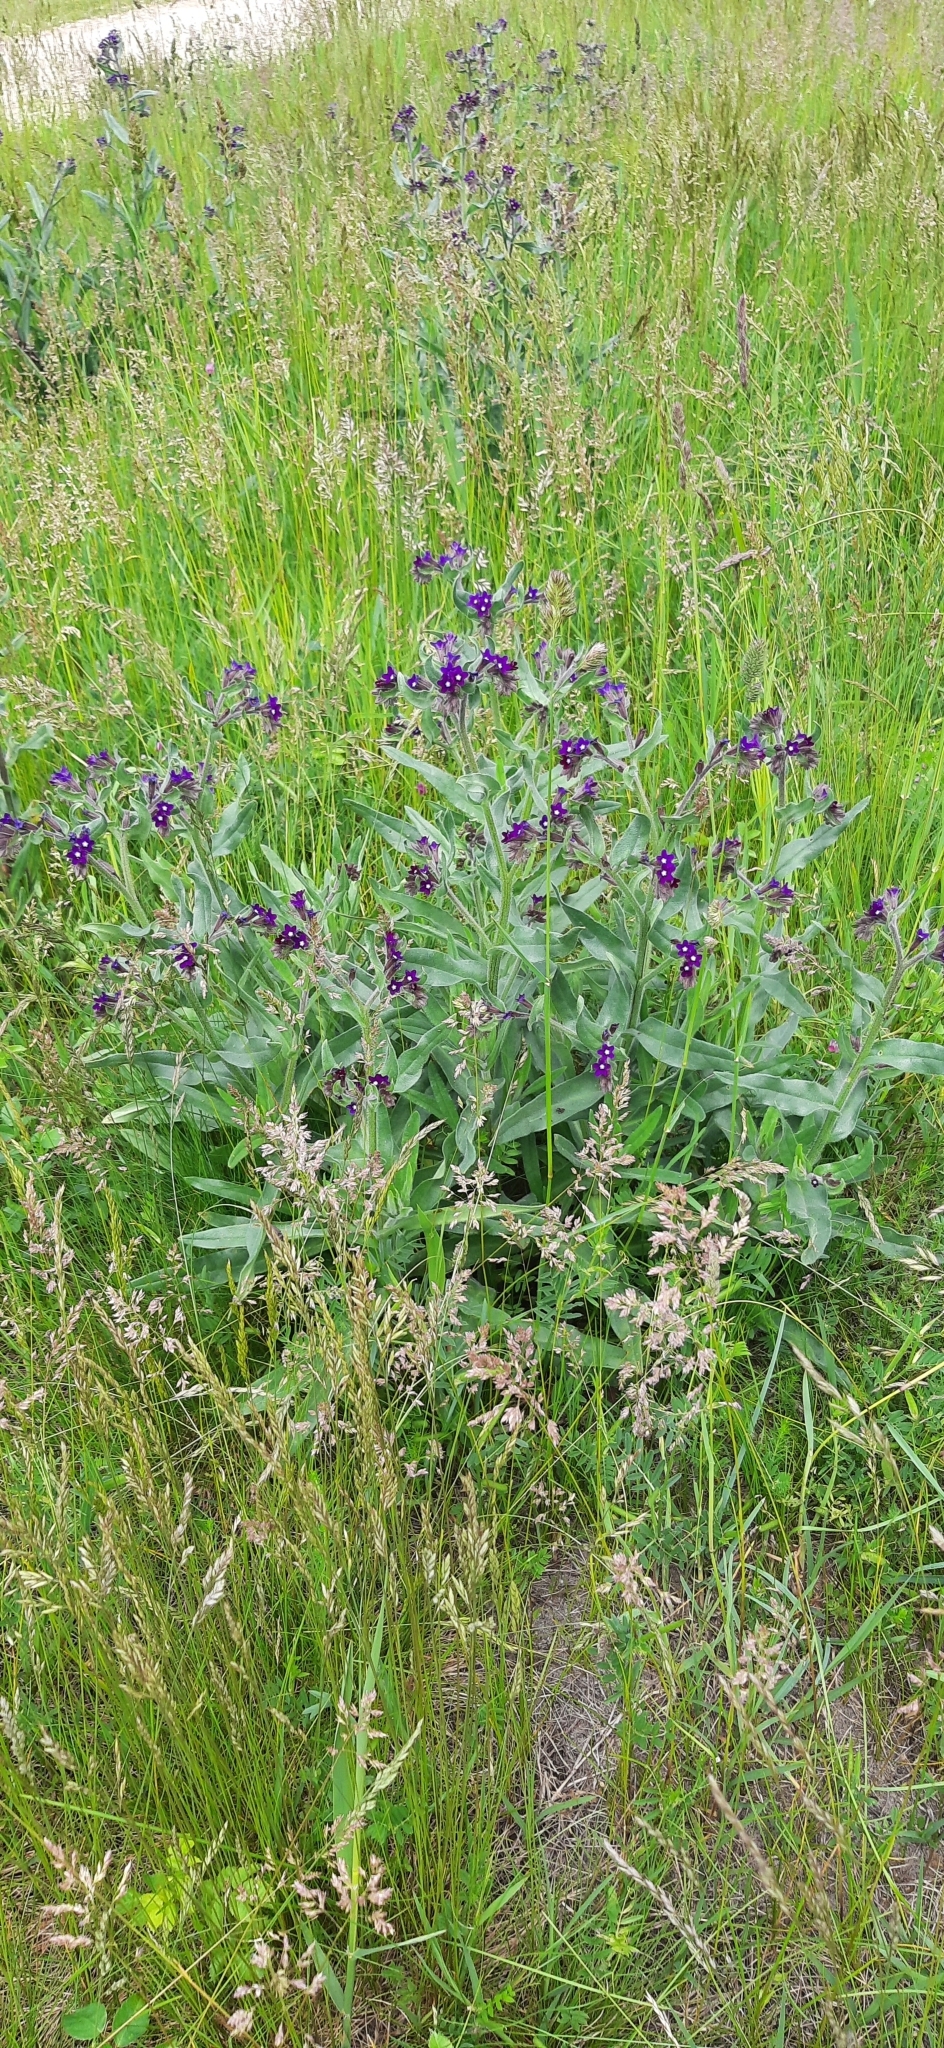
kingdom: Plantae
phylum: Tracheophyta
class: Magnoliopsida
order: Boraginales
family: Boraginaceae
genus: Anchusa
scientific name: Anchusa officinalis
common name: Alkanet
